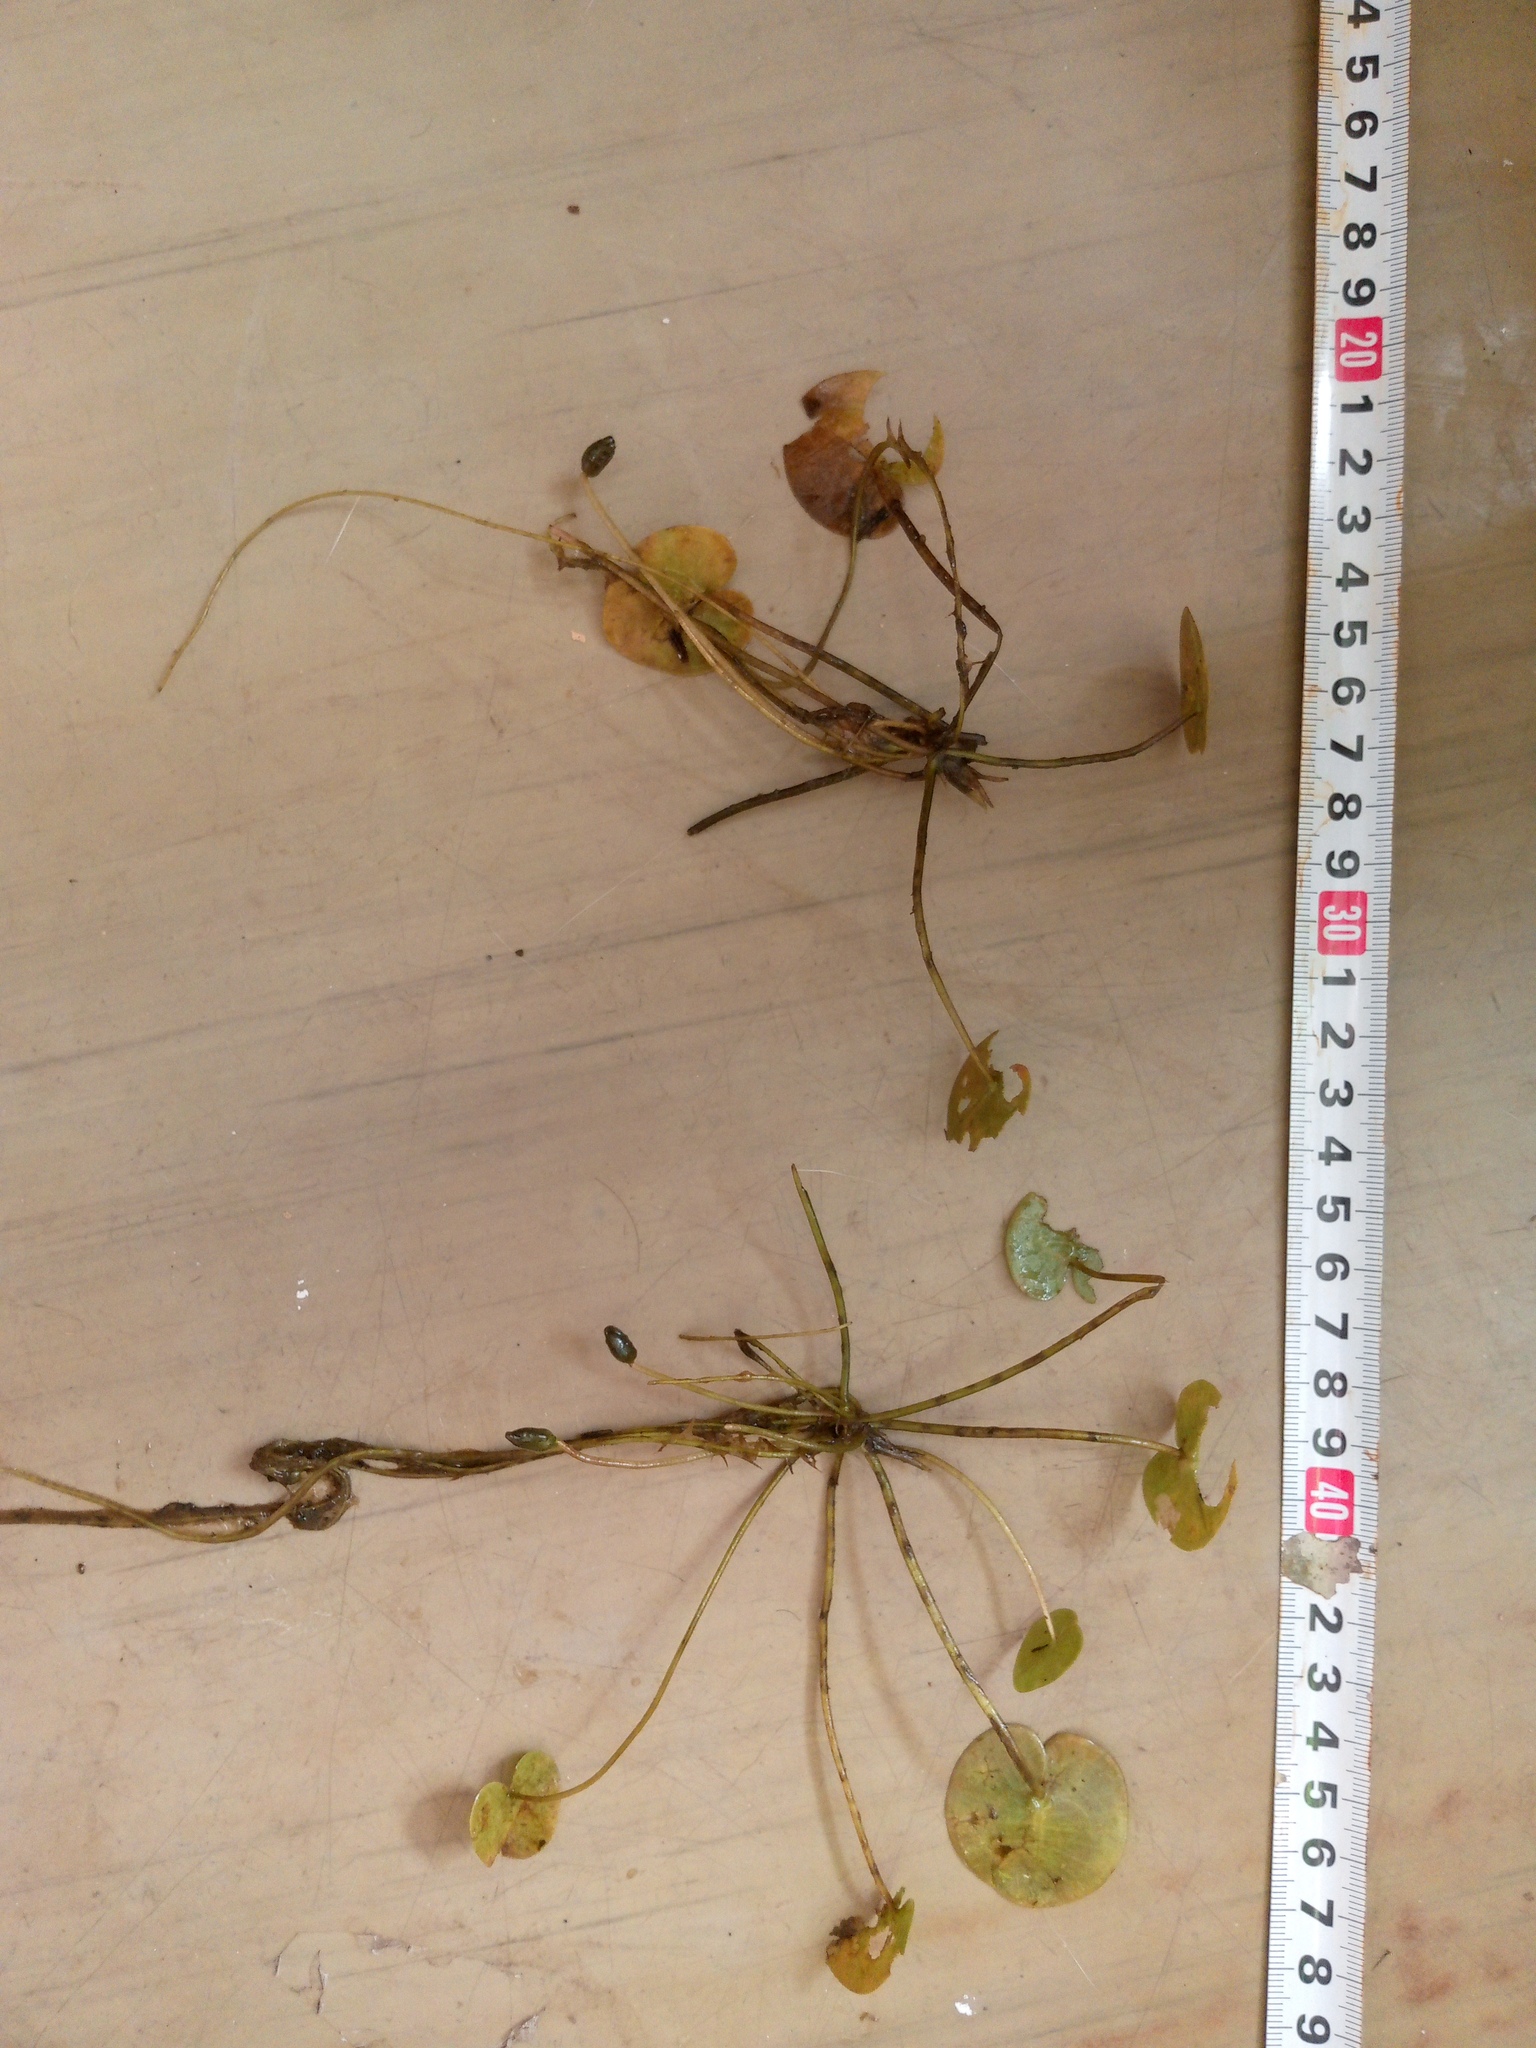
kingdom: Plantae
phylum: Tracheophyta
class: Liliopsida
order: Alismatales
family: Hydrocharitaceae
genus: Hydrocharis
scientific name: Hydrocharis morsus-ranae
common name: Frogbit
